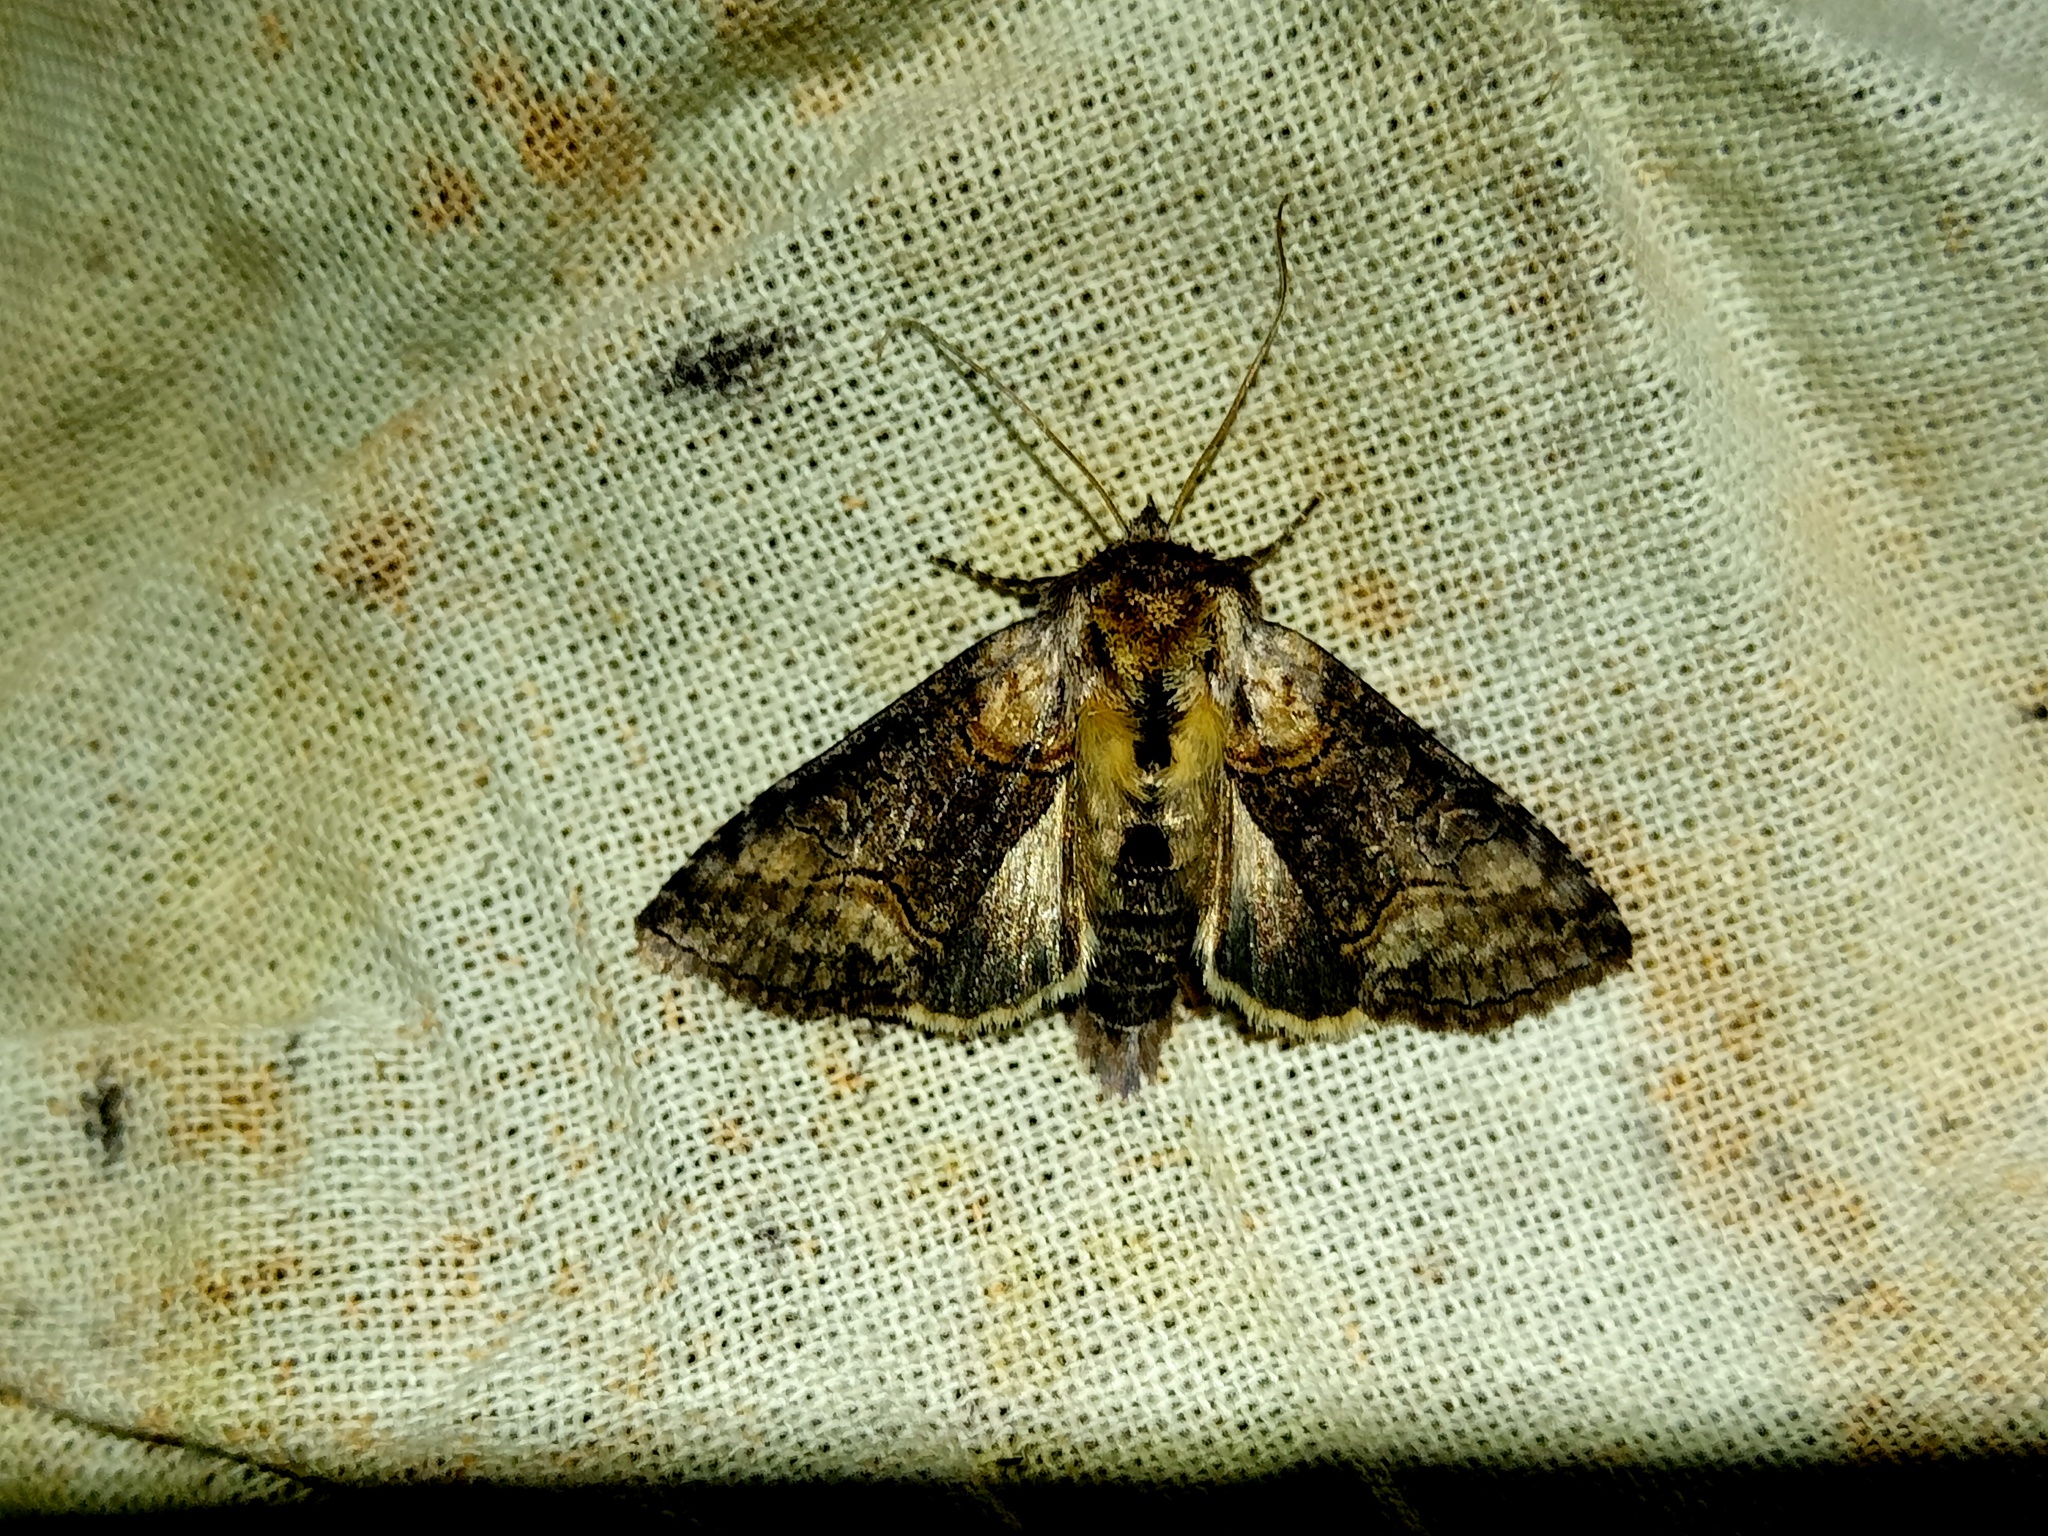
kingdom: Animalia
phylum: Arthropoda
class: Insecta
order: Lepidoptera
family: Noctuidae
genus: Abrostola
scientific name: Abrostola asclepiadis
